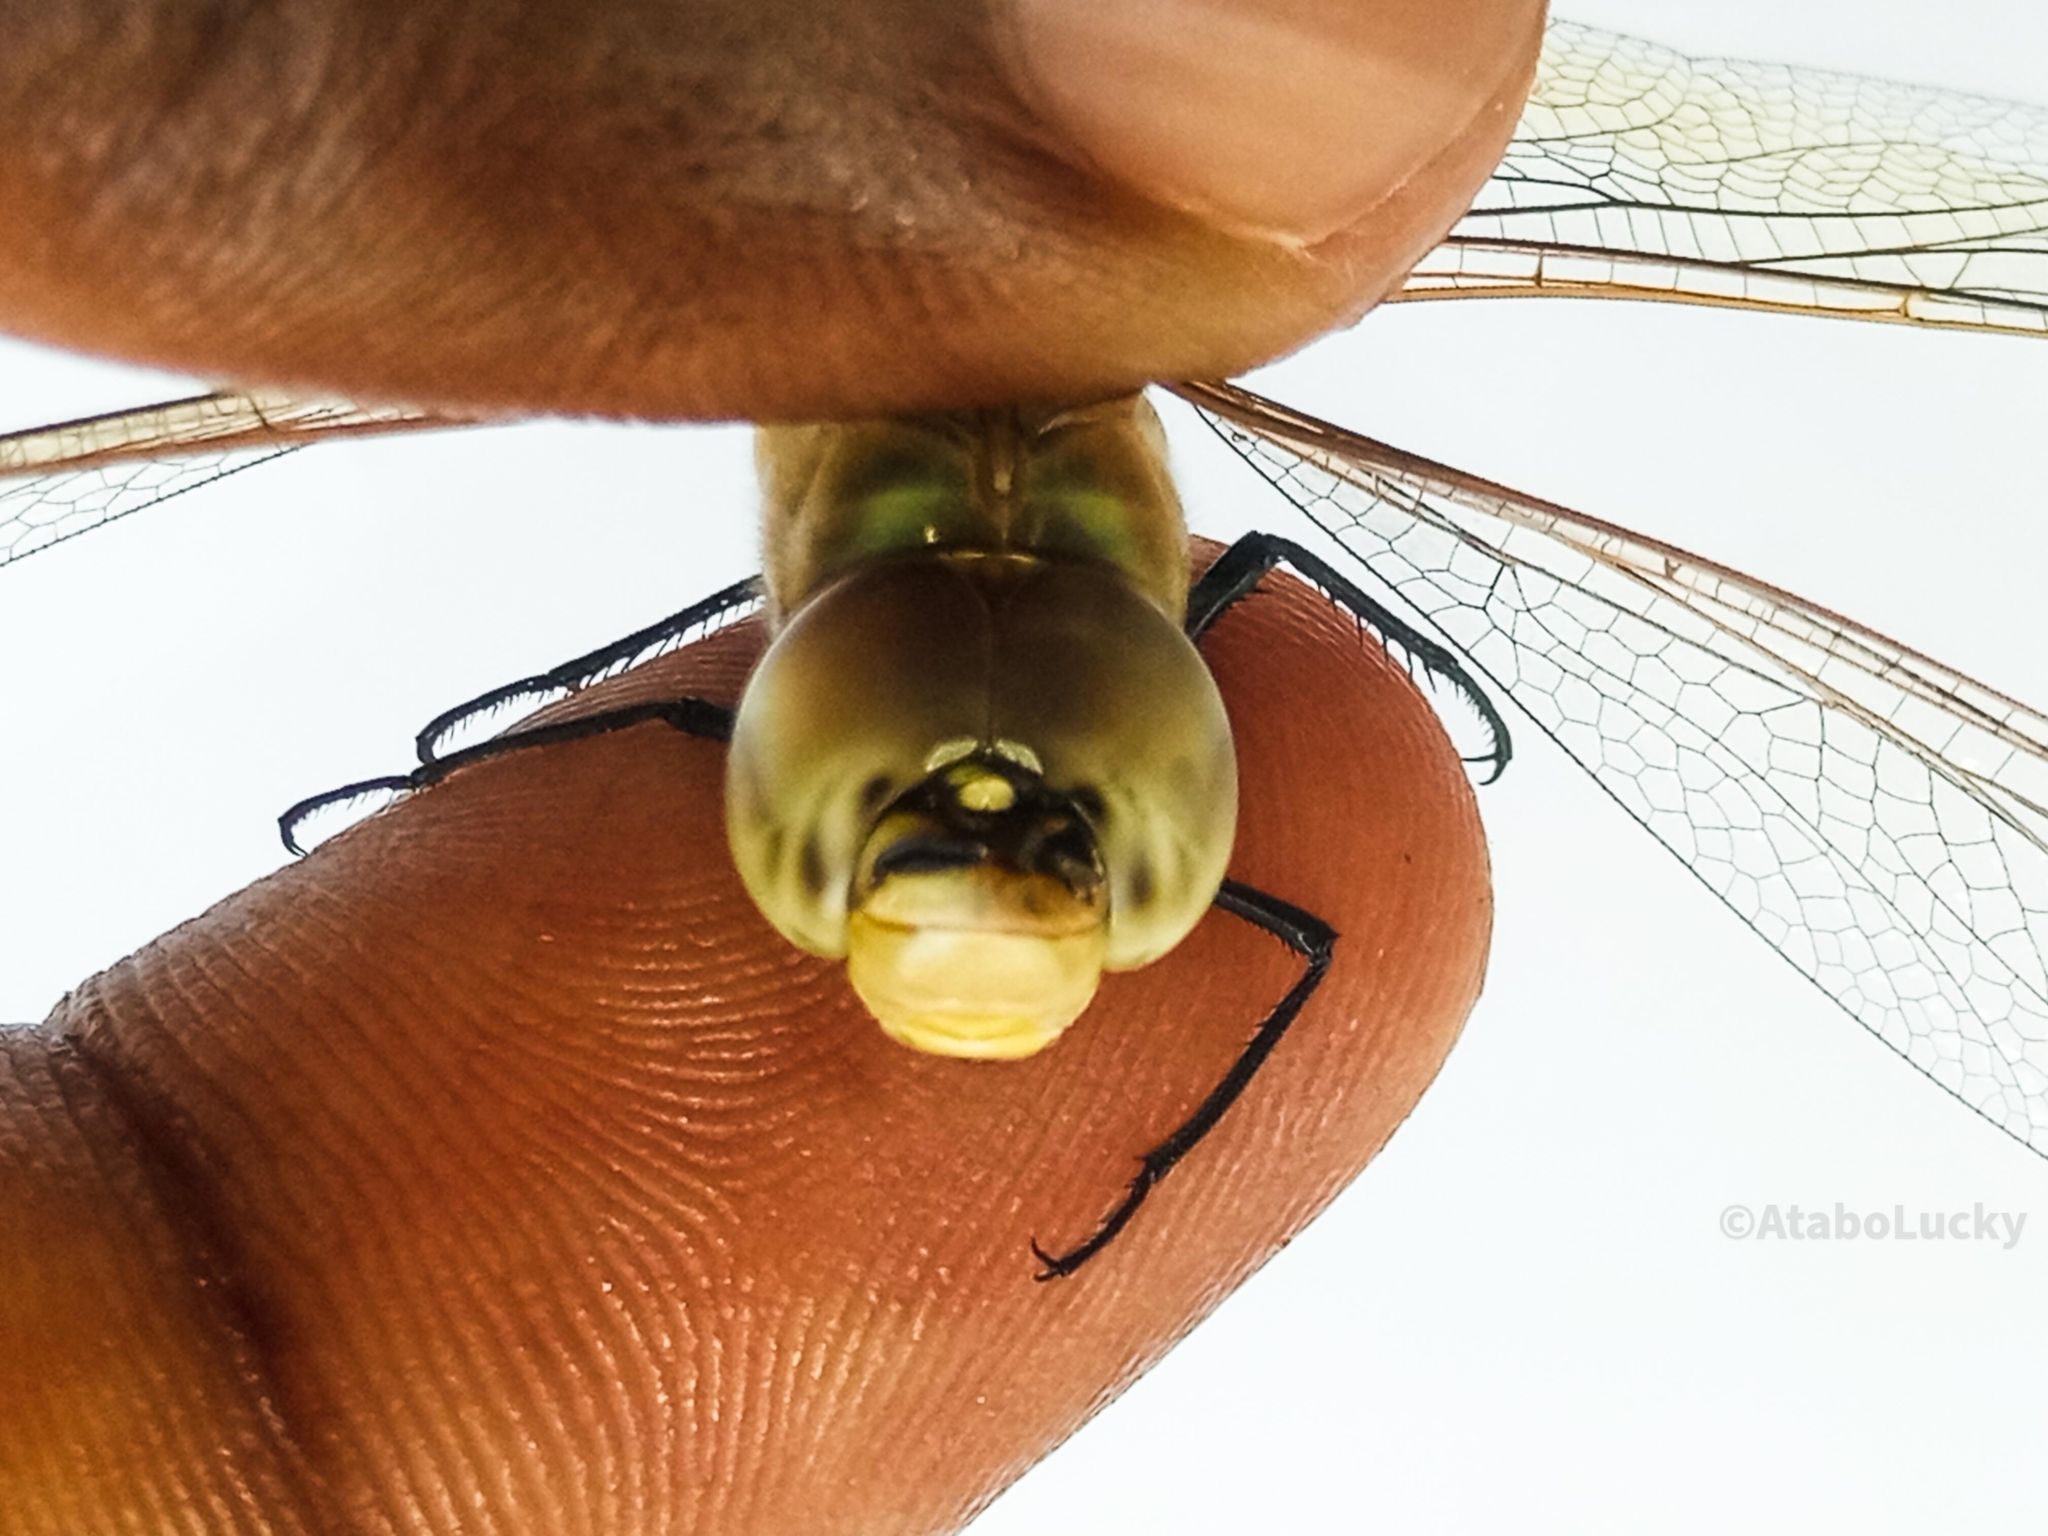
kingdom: Animalia
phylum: Arthropoda
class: Insecta
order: Odonata
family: Aeshnidae
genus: Anax
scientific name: Anax ephippiger
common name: Vagrant emperor
